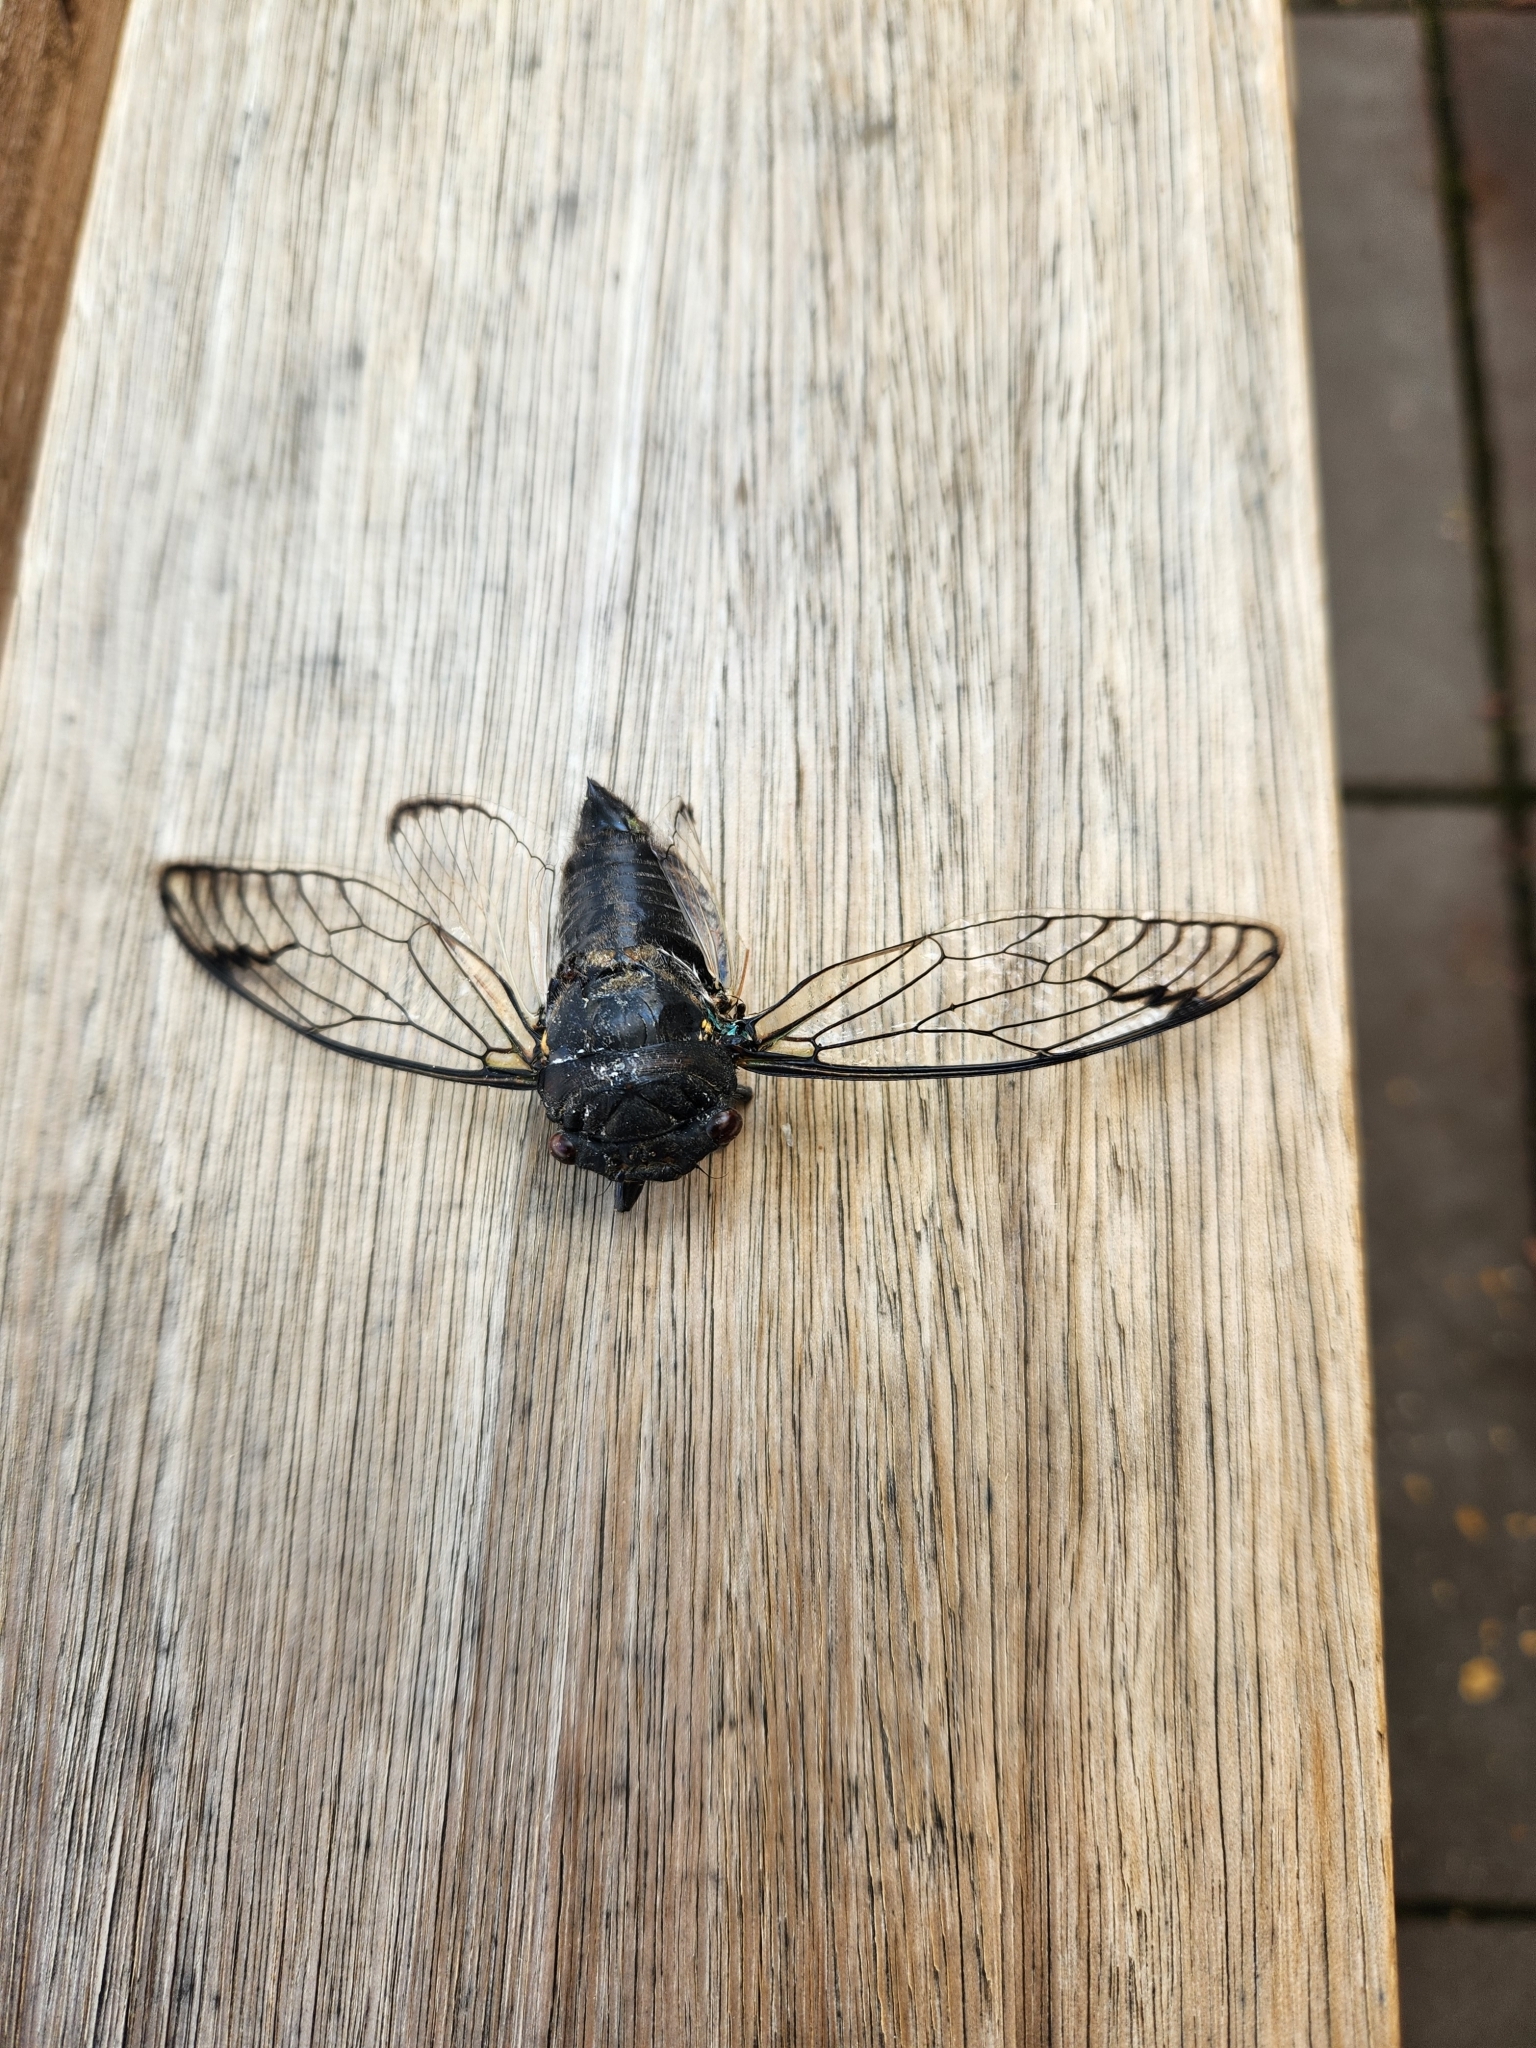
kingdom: Animalia
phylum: Arthropoda
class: Insecta
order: Hemiptera
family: Cicadidae
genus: Psaltoda
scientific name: Psaltoda moerens
